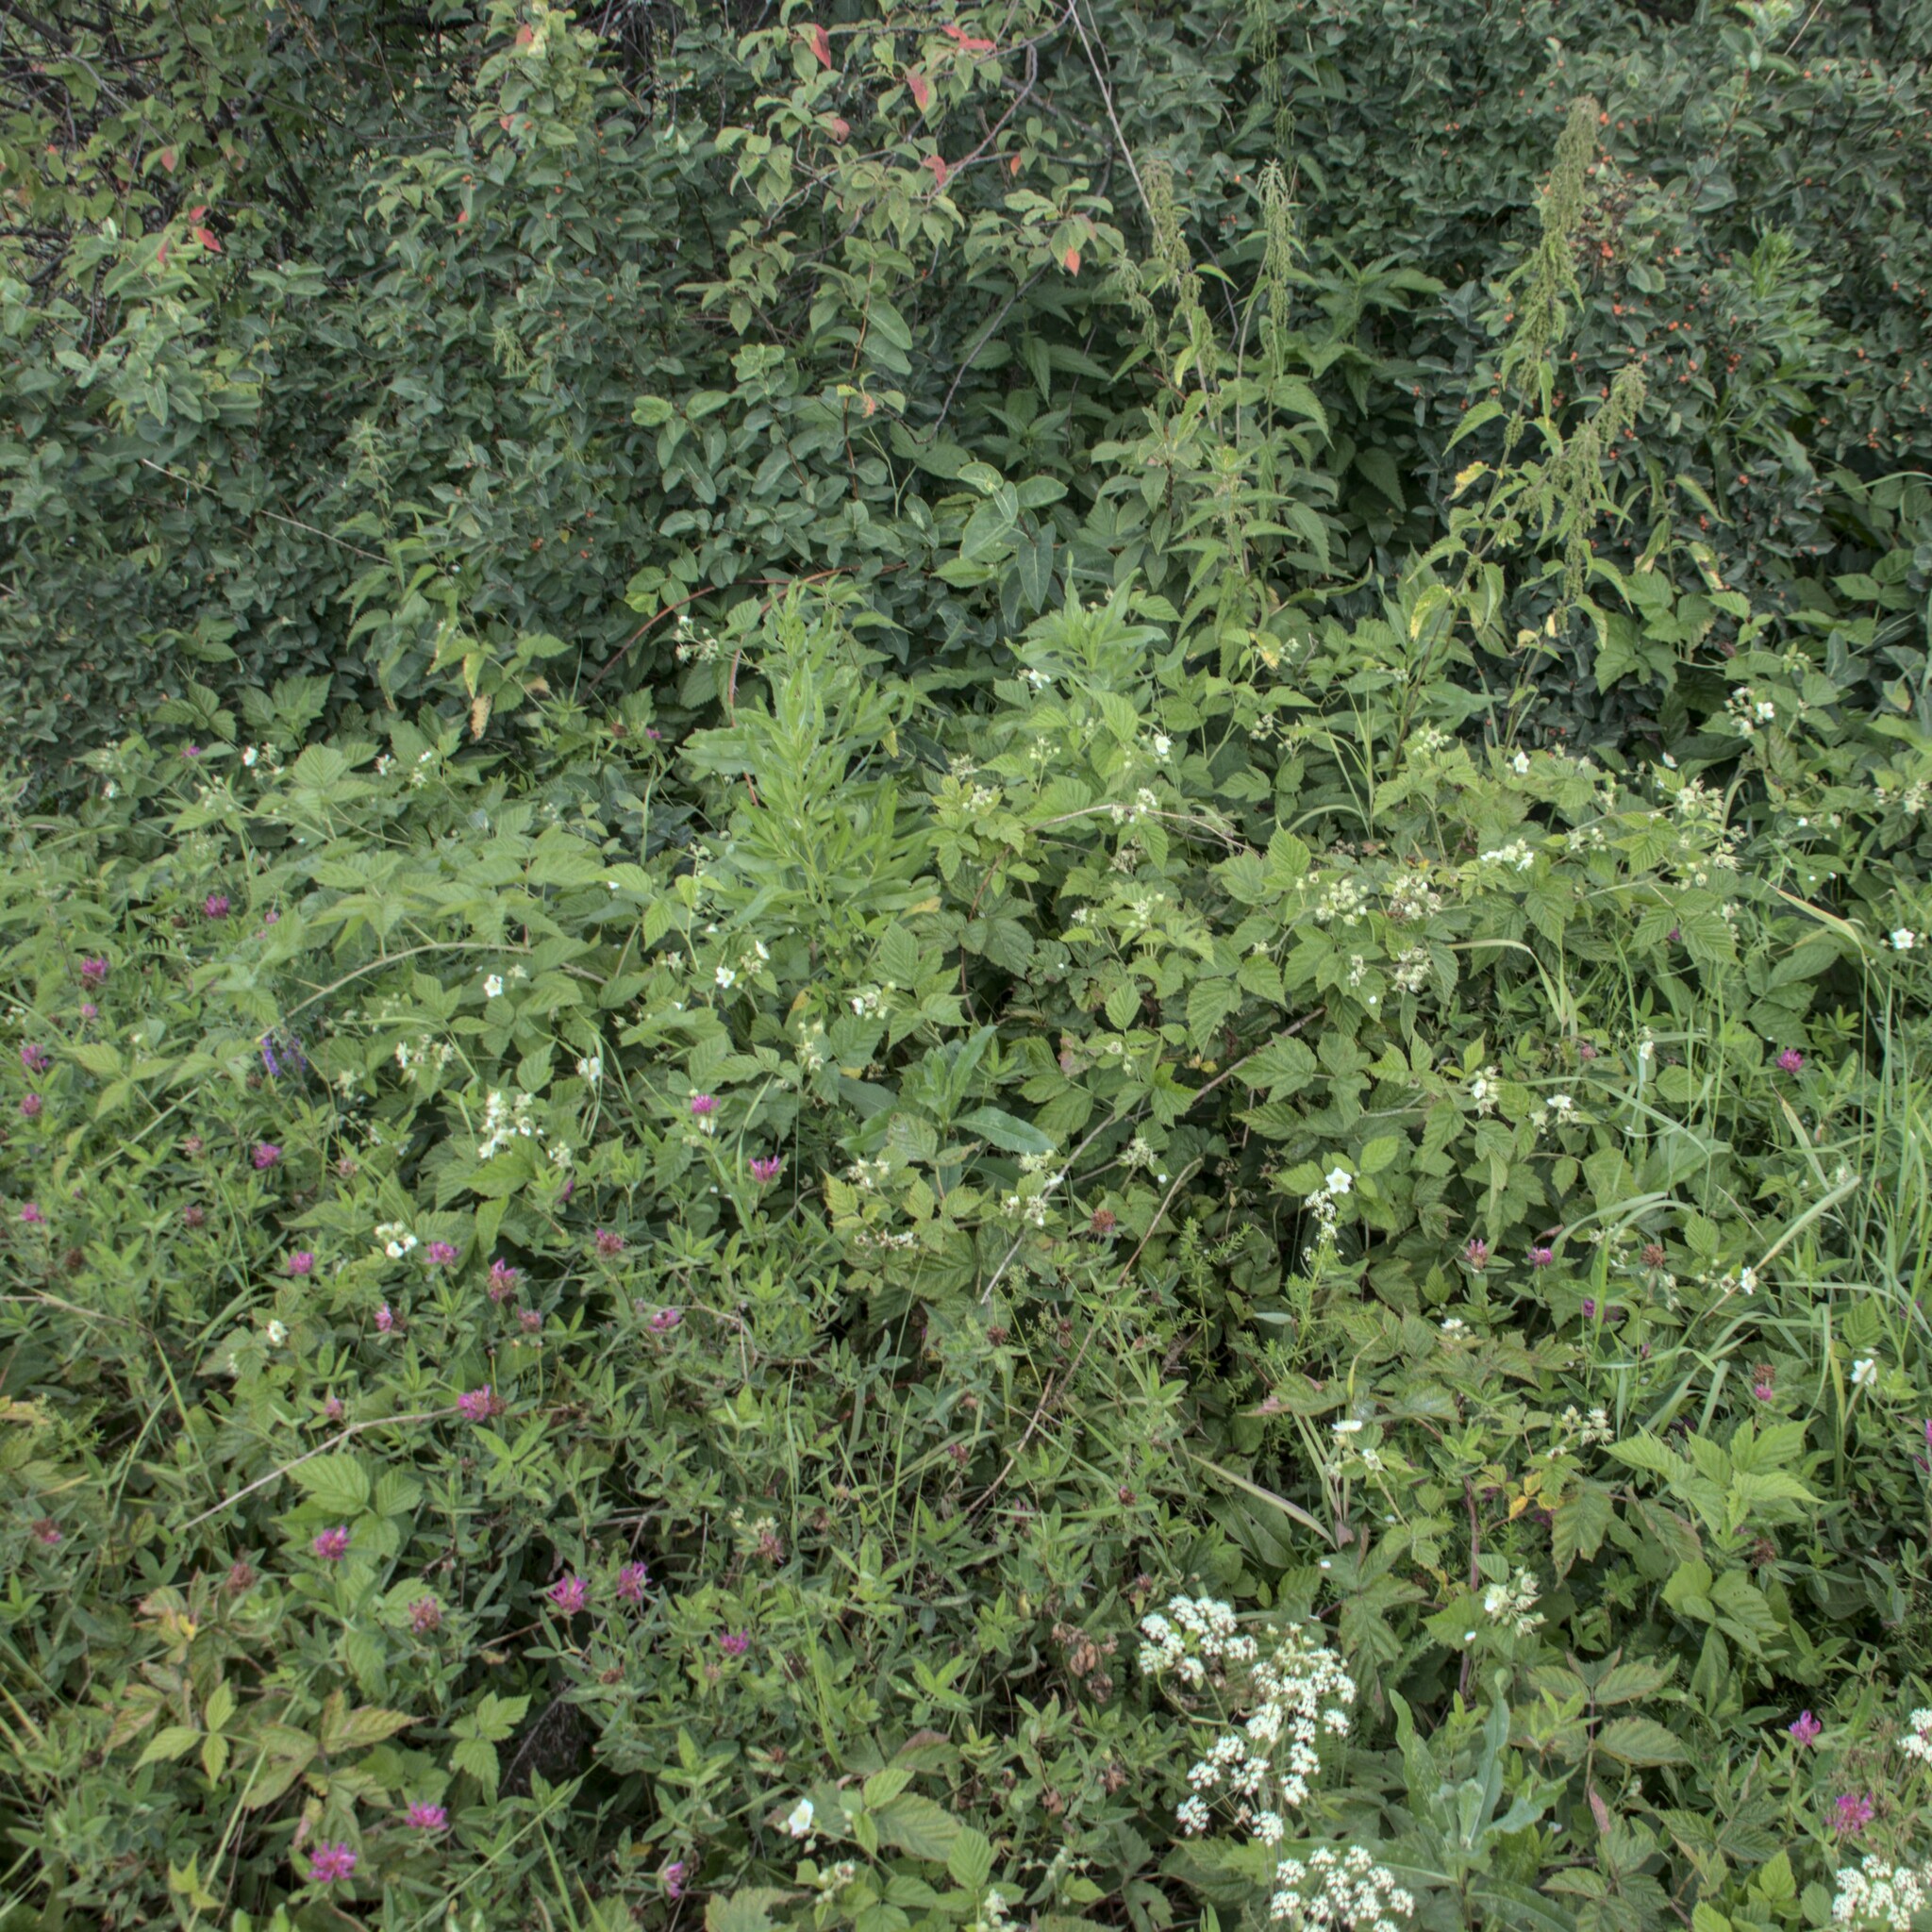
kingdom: Plantae
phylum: Tracheophyta
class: Magnoliopsida
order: Rosales
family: Rosaceae
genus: Rubus
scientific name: Rubus caesius
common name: Dewberry
